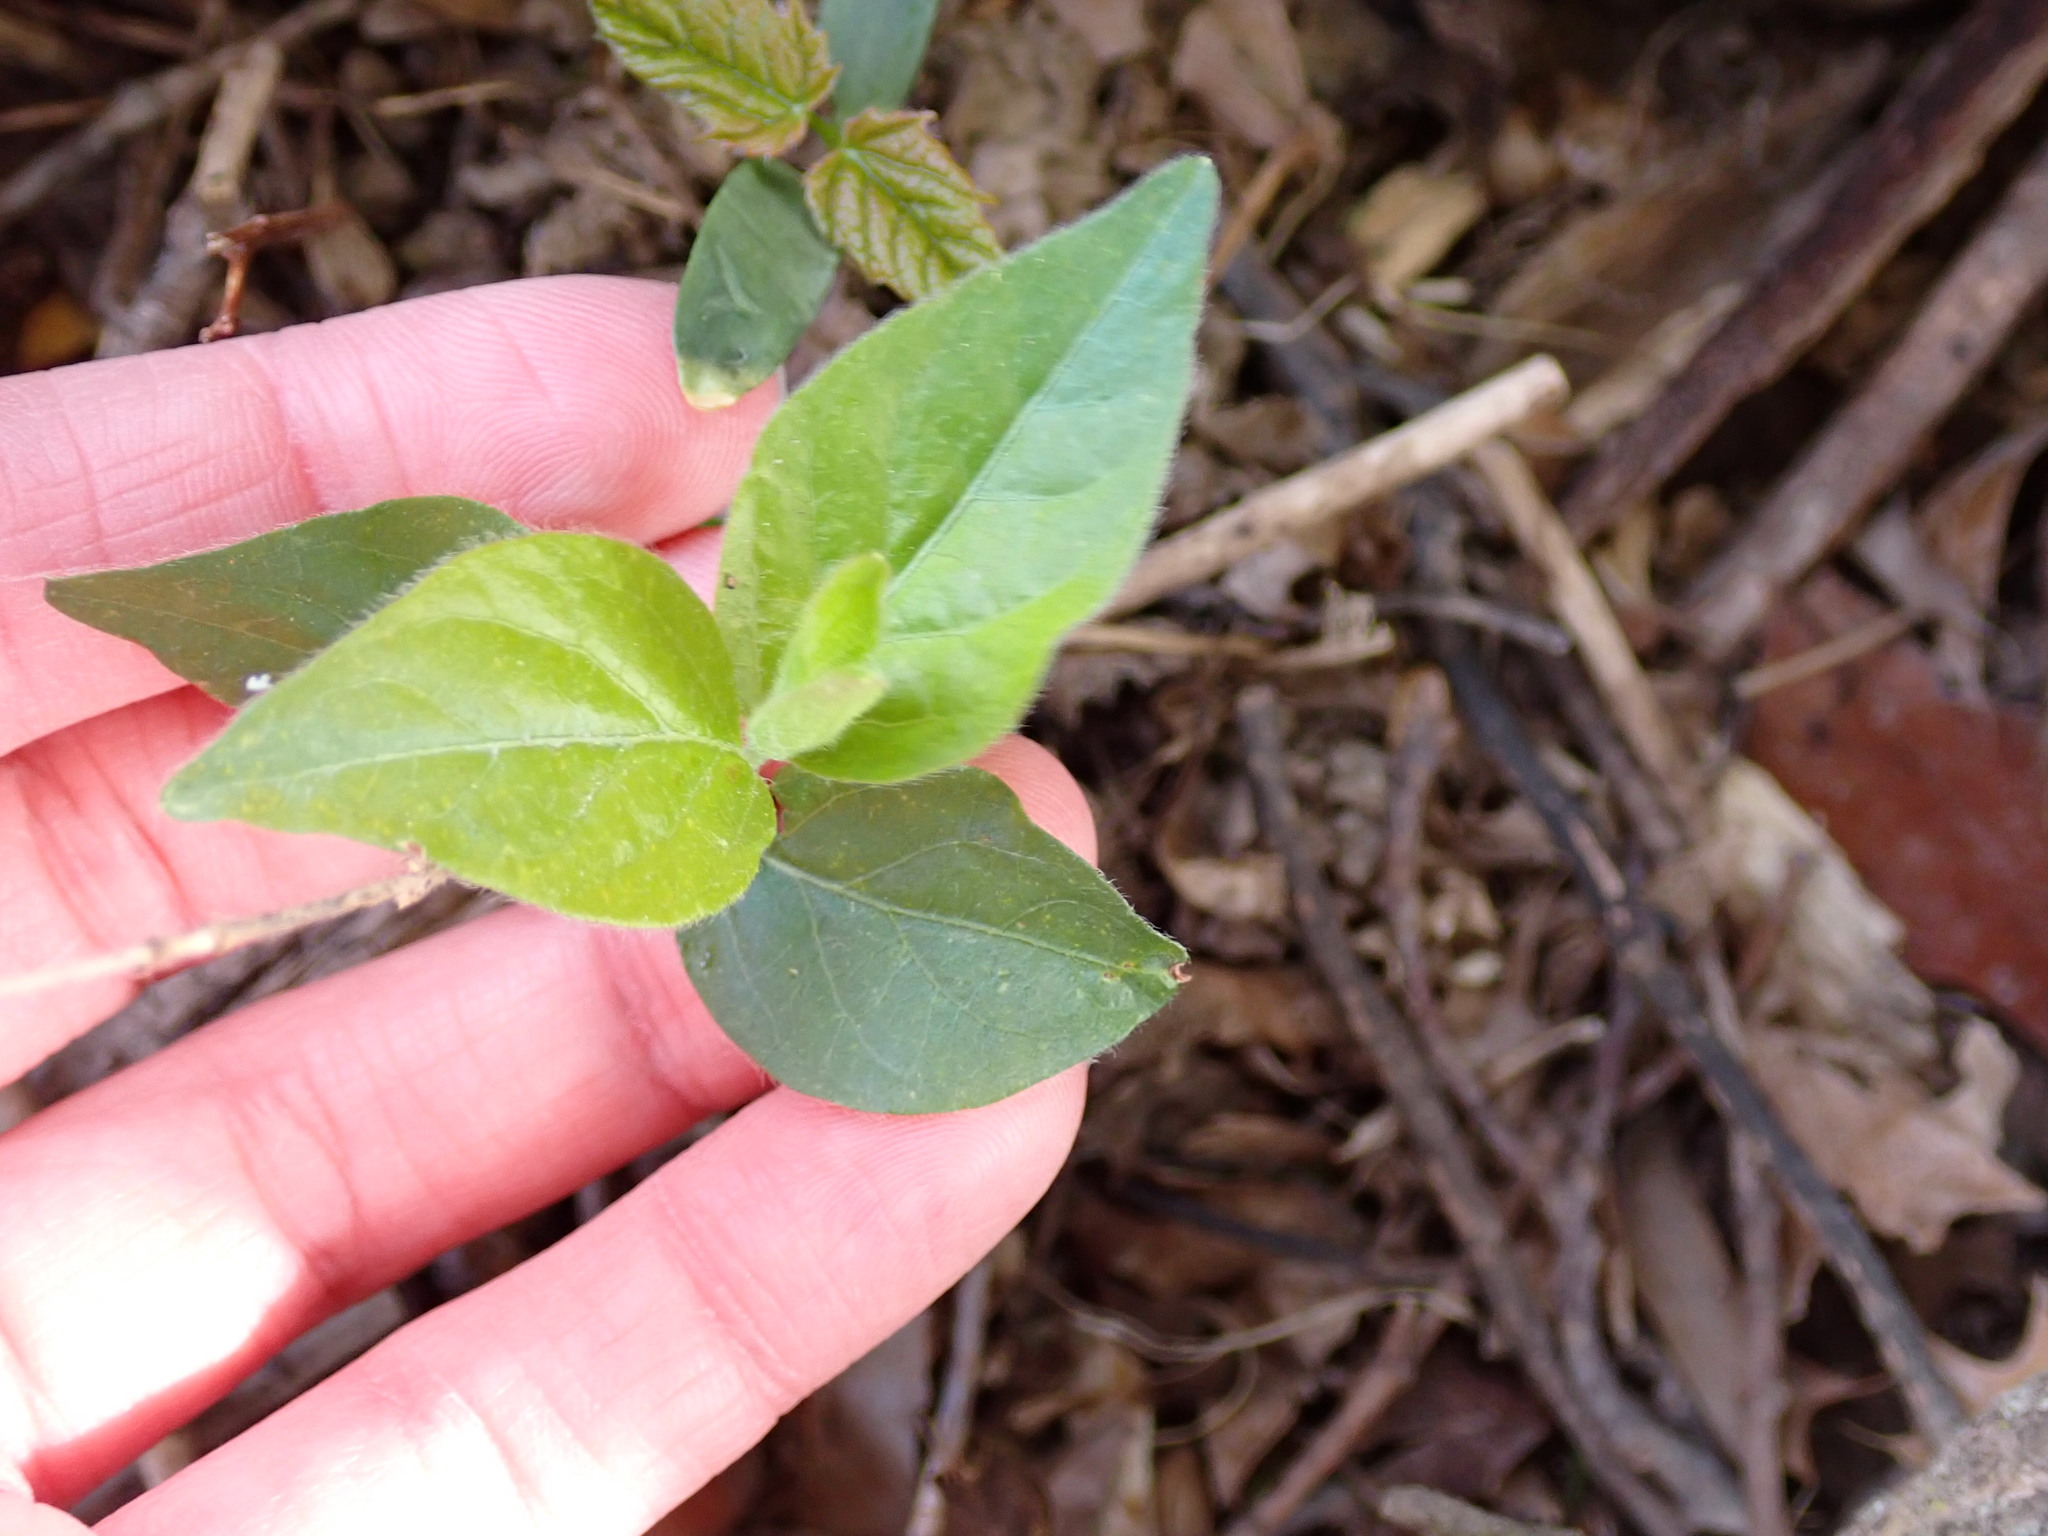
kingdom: Plantae
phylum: Tracheophyta
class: Magnoliopsida
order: Dipsacales
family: Caprifoliaceae
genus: Lonicera
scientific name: Lonicera maackii
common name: Amur honeysuckle
